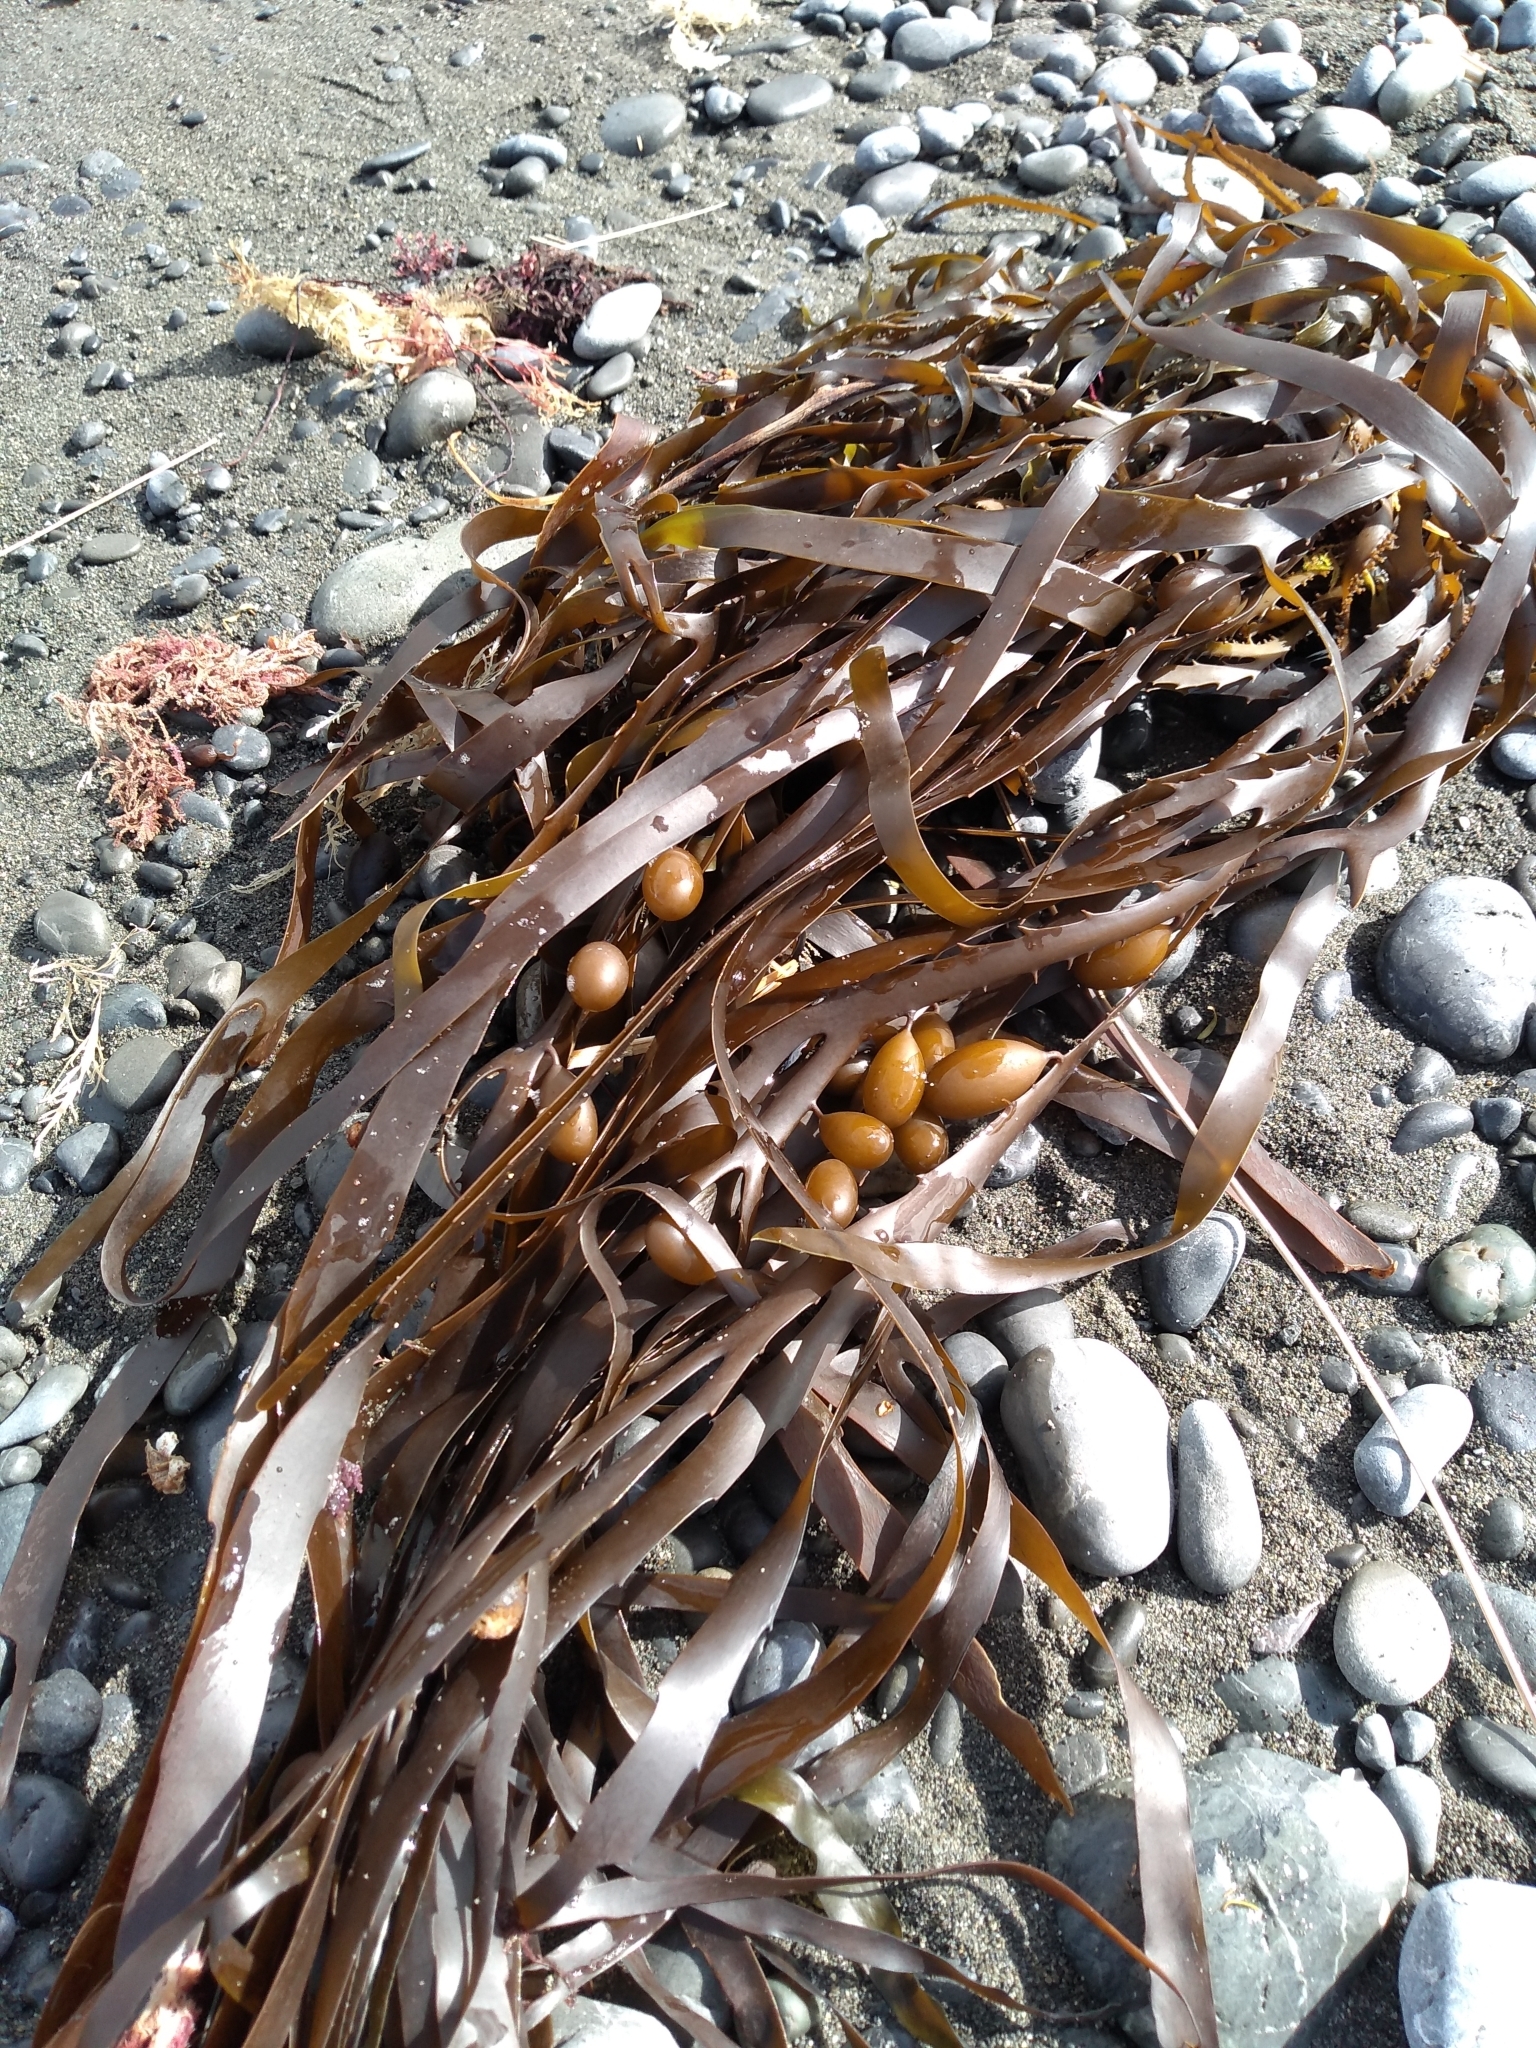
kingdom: Chromista
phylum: Ochrophyta
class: Phaeophyceae
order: Fucales
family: Seirococcaceae
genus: Marginariella
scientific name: Marginariella boryana
